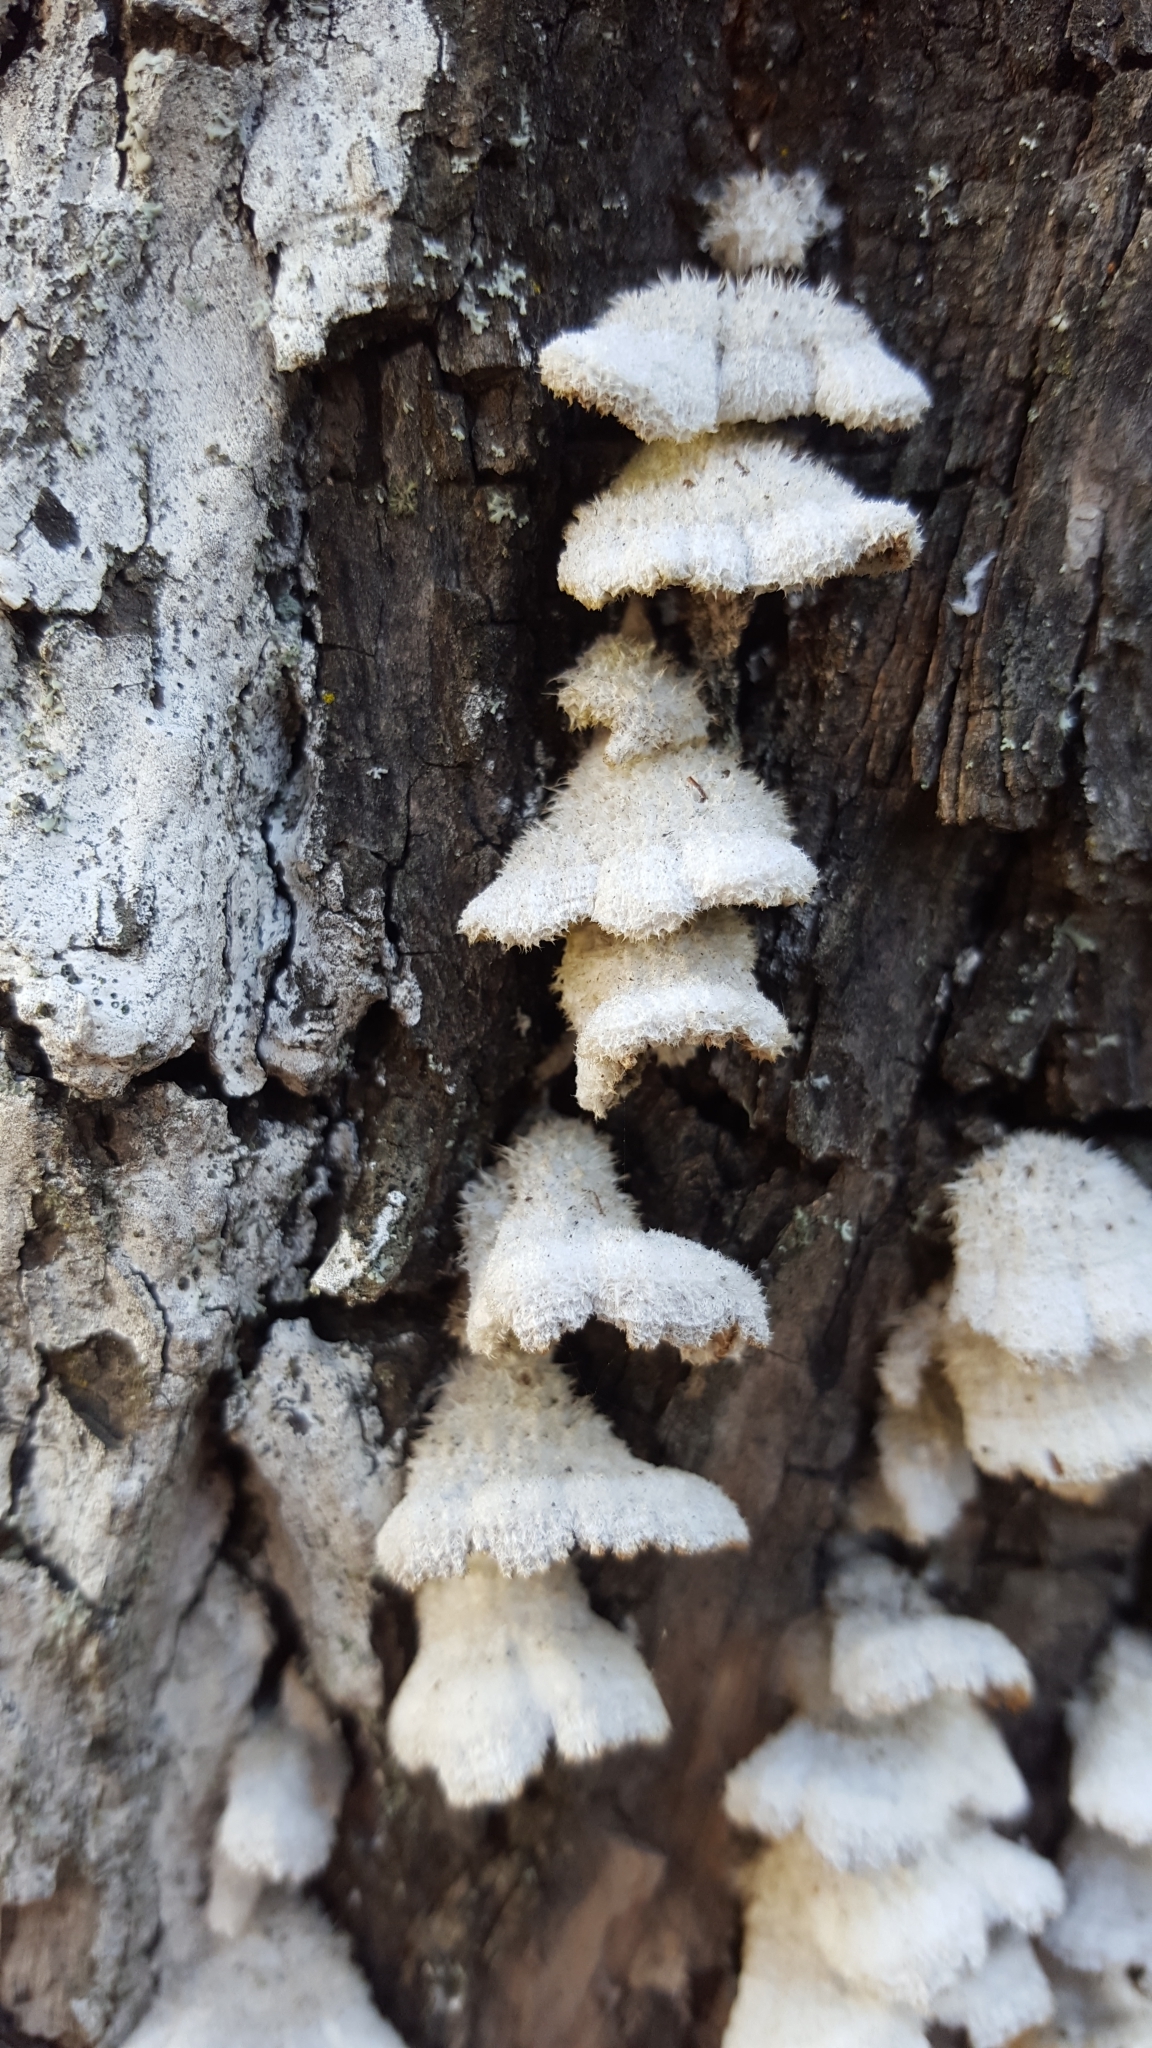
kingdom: Fungi
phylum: Basidiomycota
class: Agaricomycetes
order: Agaricales
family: Schizophyllaceae
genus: Schizophyllum
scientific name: Schizophyllum commune
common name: Common porecrust
